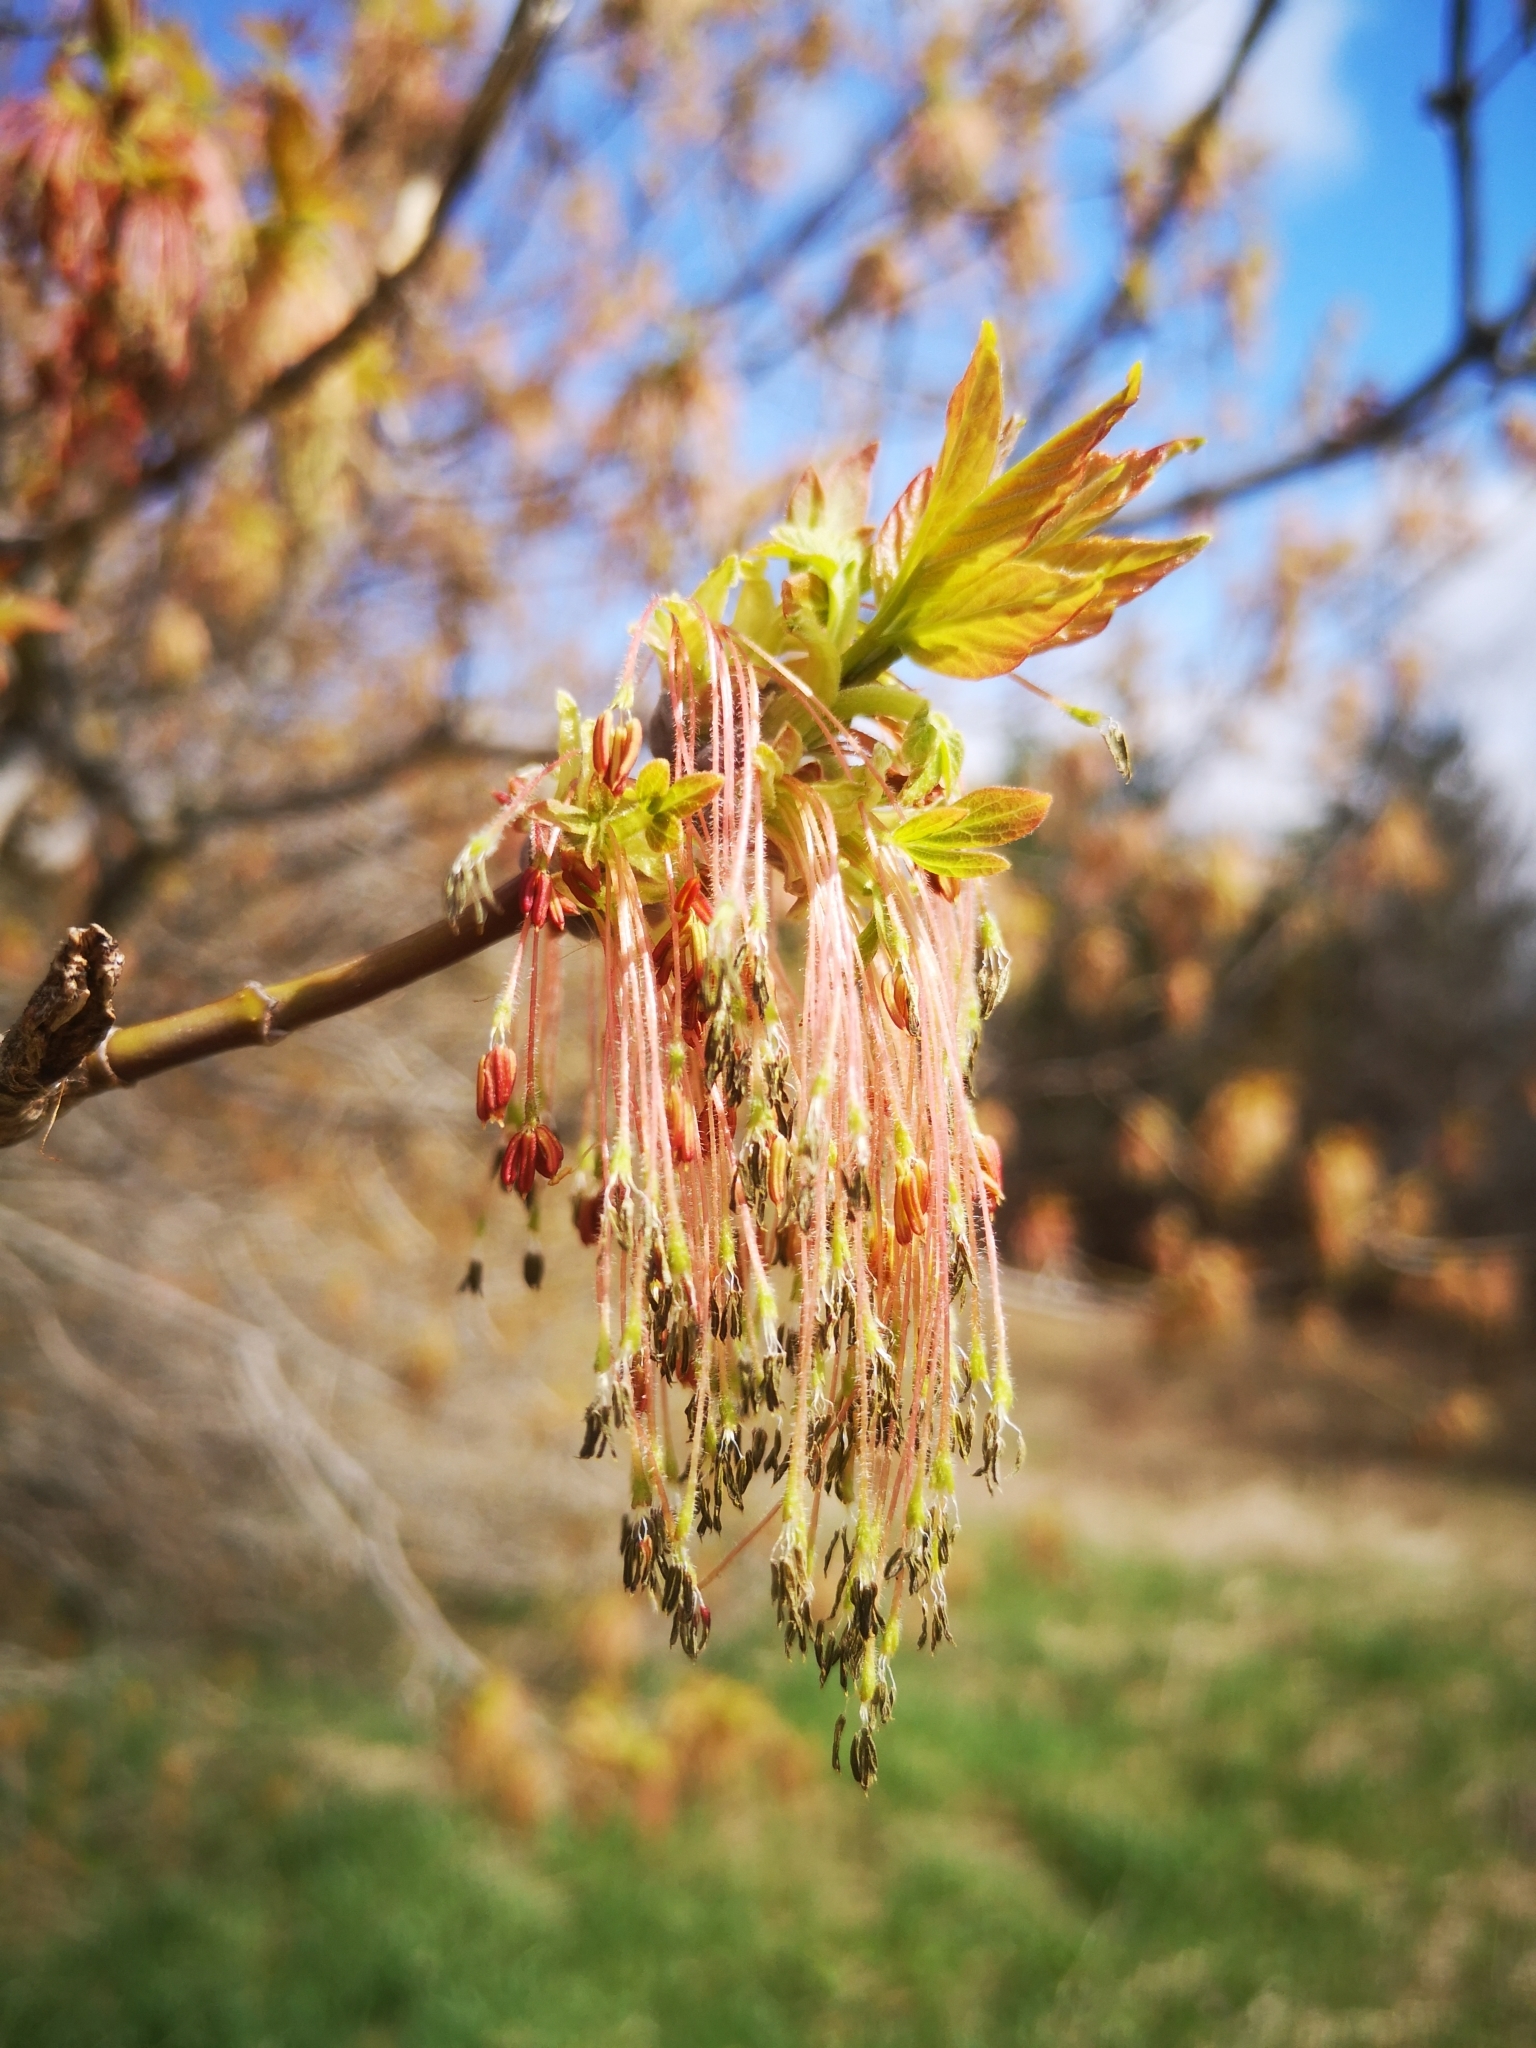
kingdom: Plantae
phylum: Tracheophyta
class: Magnoliopsida
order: Sapindales
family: Sapindaceae
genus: Acer
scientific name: Acer negundo
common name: Ashleaf maple
